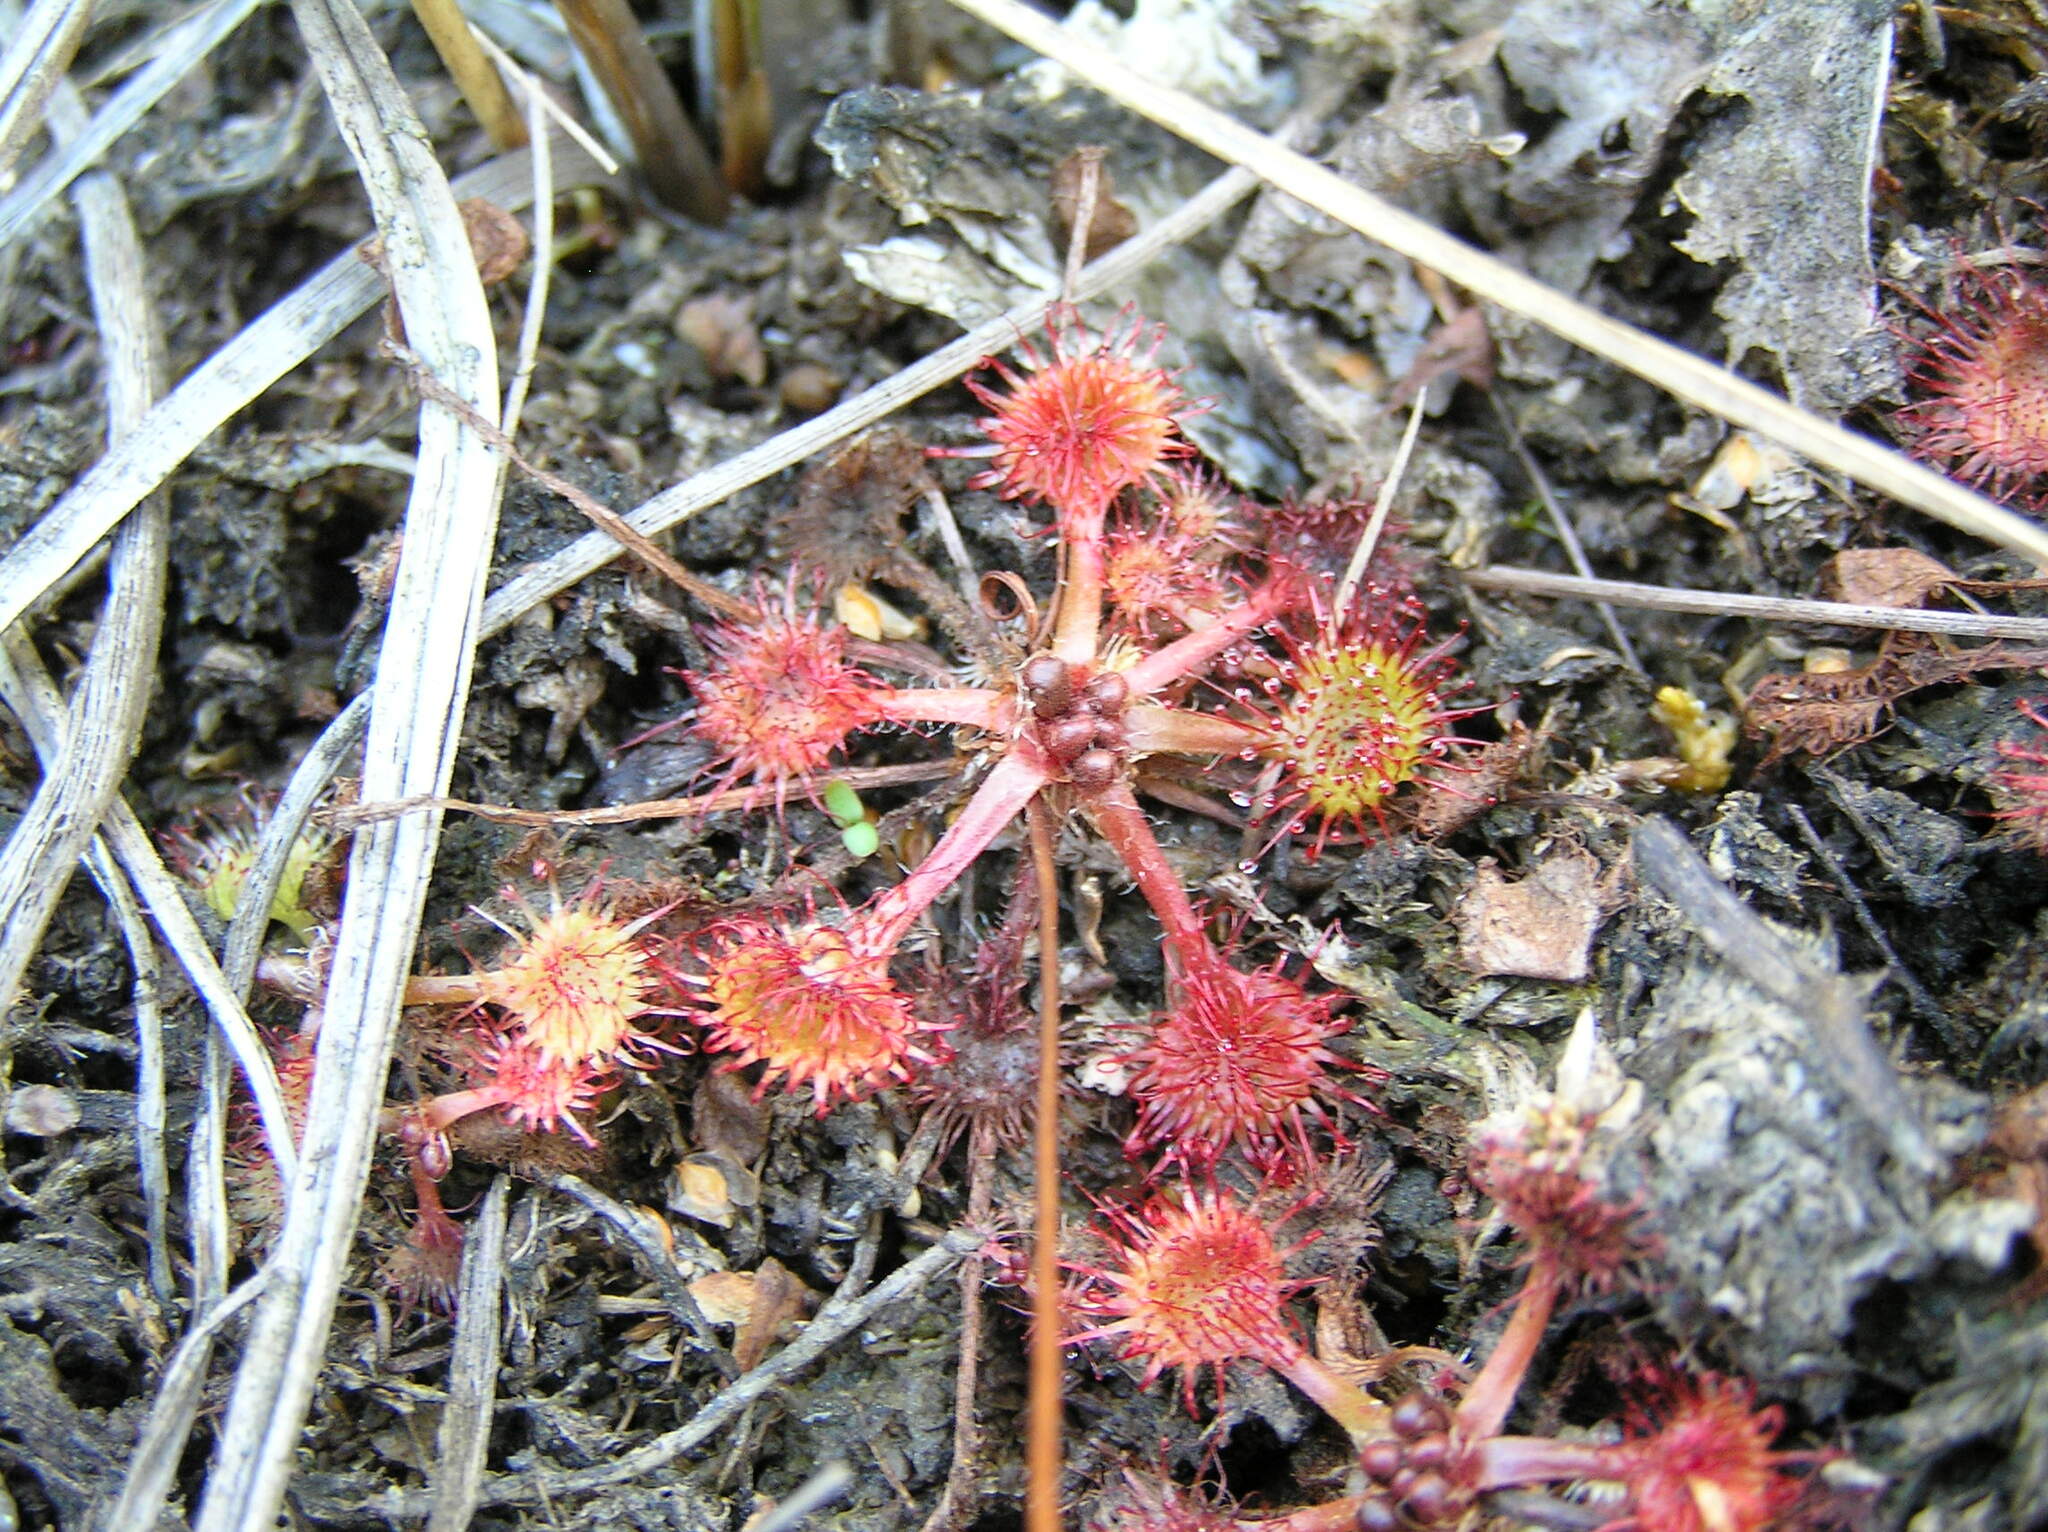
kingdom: Plantae
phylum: Tracheophyta
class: Magnoliopsida
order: Caryophyllales
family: Droseraceae
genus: Drosera
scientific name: Drosera rotundifolia
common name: Round-leaved sundew
